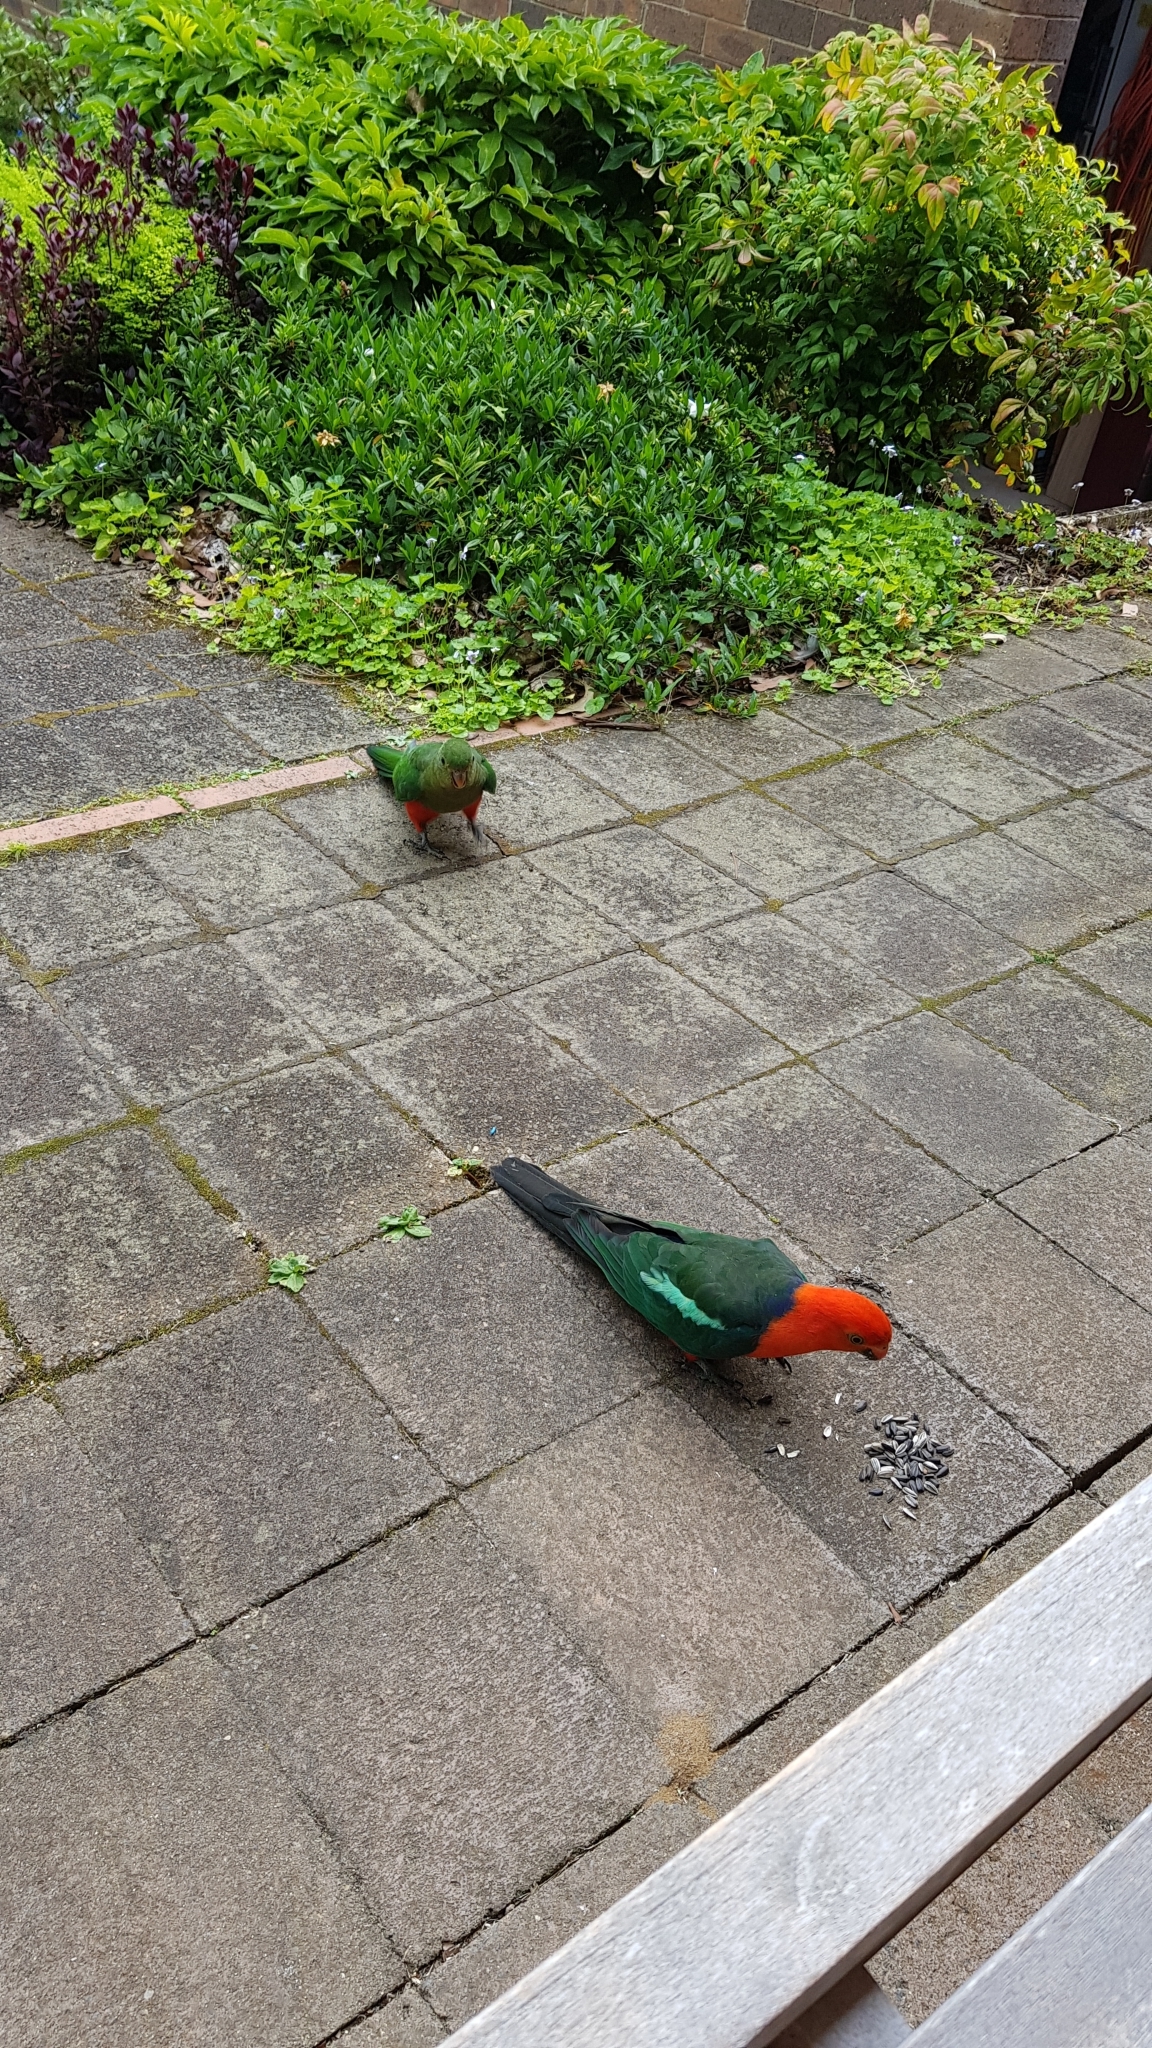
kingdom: Animalia
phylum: Chordata
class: Aves
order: Psittaciformes
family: Psittacidae
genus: Alisterus
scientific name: Alisterus scapularis
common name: Australian king parrot
